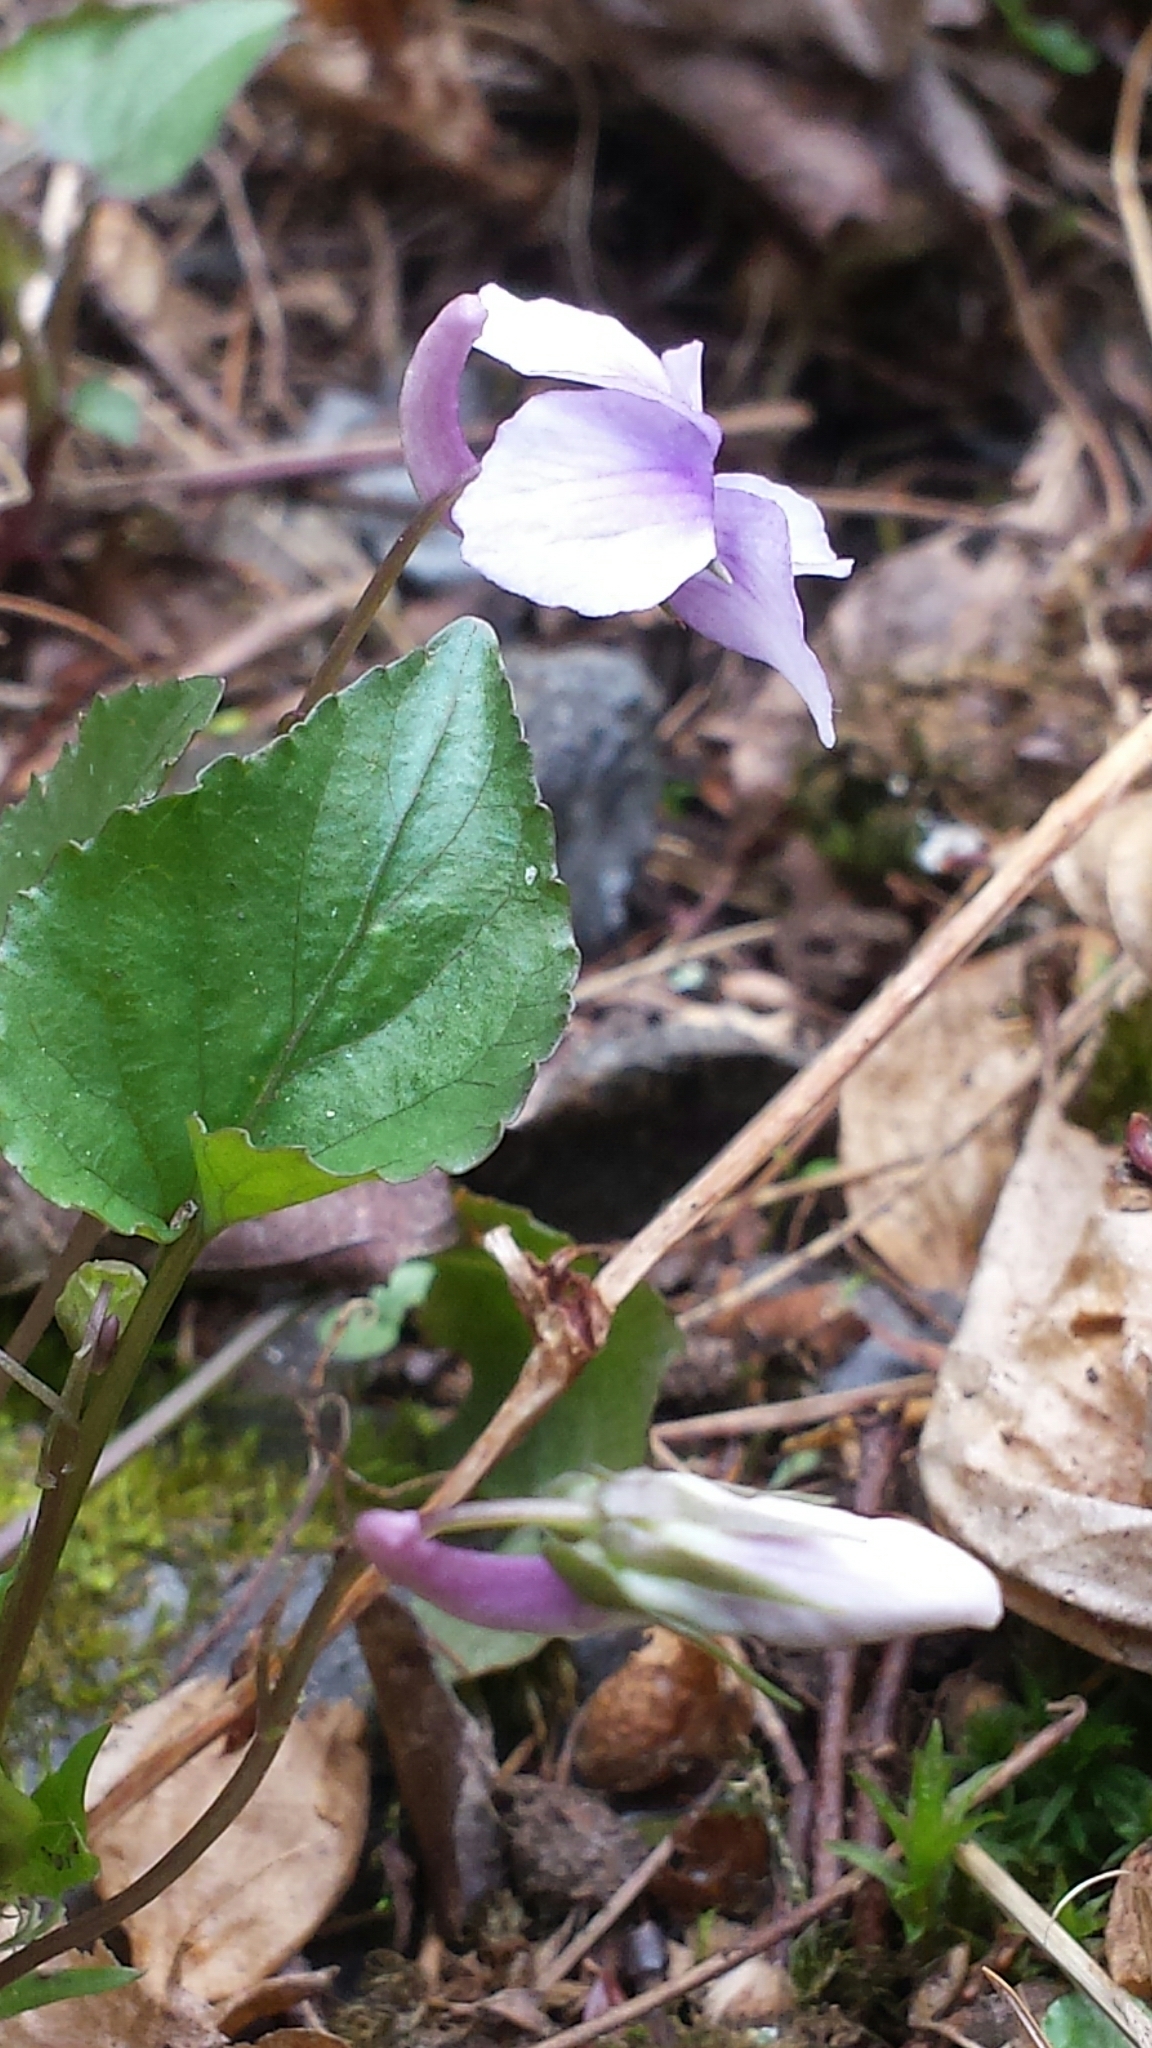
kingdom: Plantae
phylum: Tracheophyta
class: Magnoliopsida
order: Malpighiales
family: Violaceae
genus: Viola
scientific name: Viola rostrata
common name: Long-spur violet
